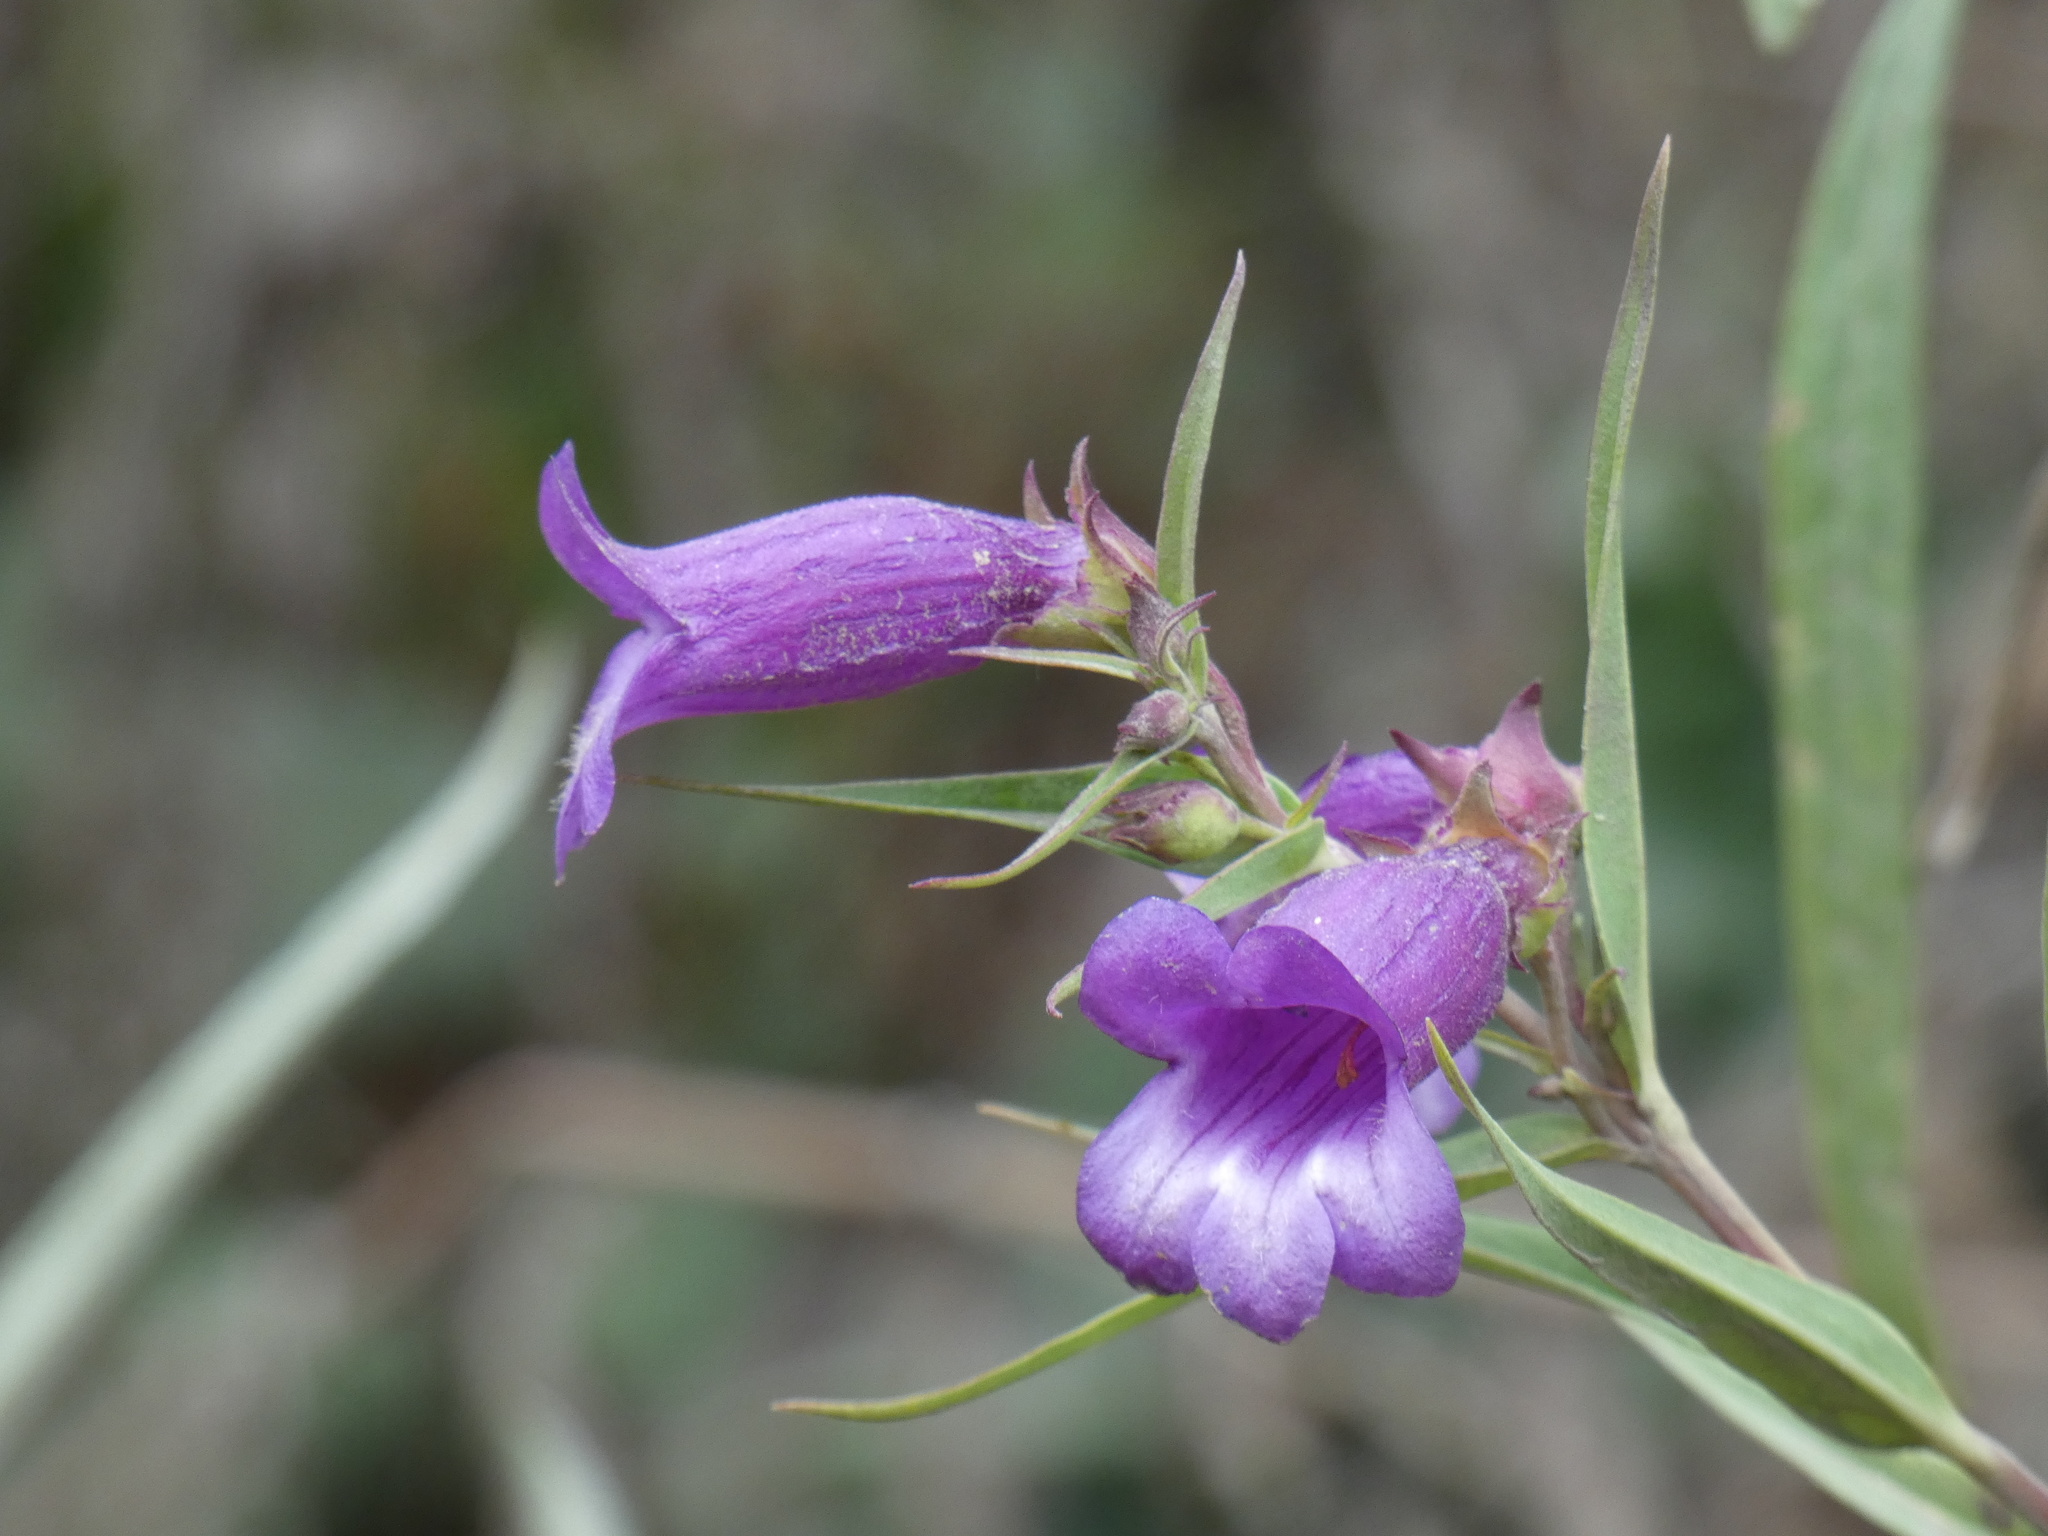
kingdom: Plantae
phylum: Tracheophyta
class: Magnoliopsida
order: Lamiales
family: Plantaginaceae
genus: Penstemon
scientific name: Penstemon gentianoides
